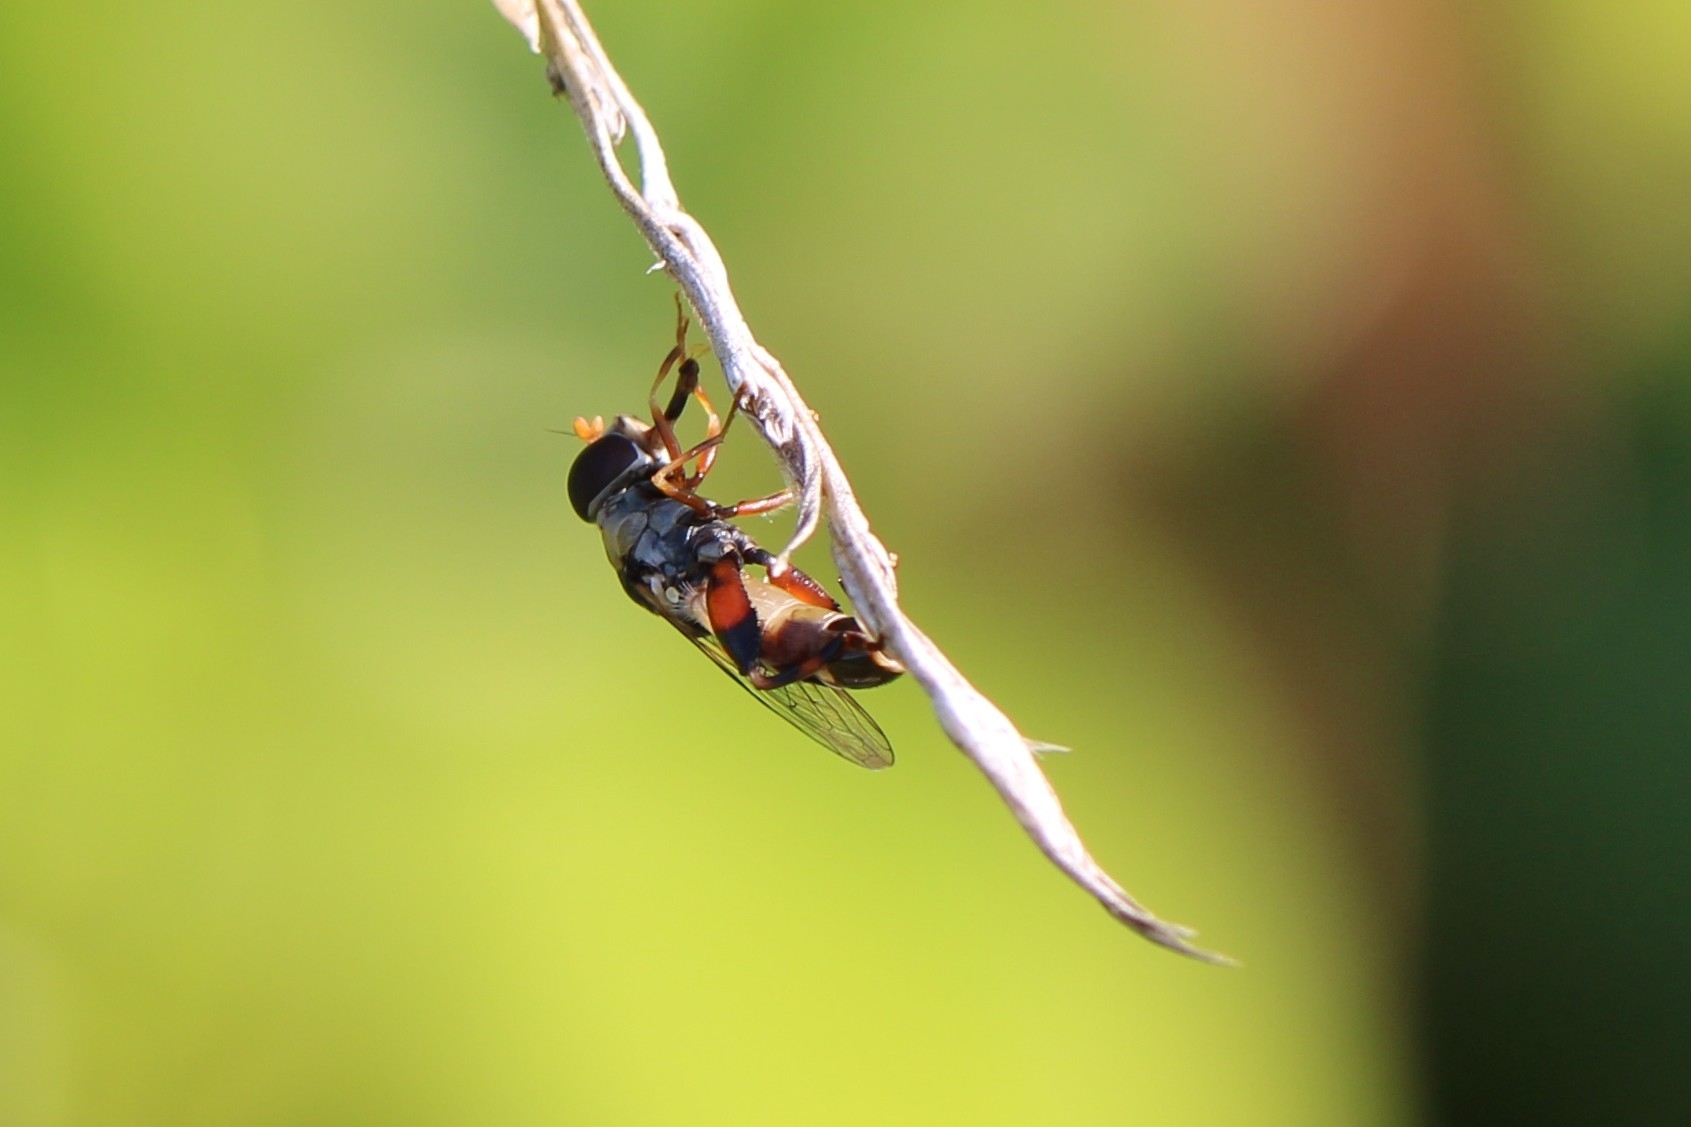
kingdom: Animalia
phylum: Arthropoda
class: Insecta
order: Diptera
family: Syrphidae
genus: Syritta
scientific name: Syritta pipiens
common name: Hover fly
